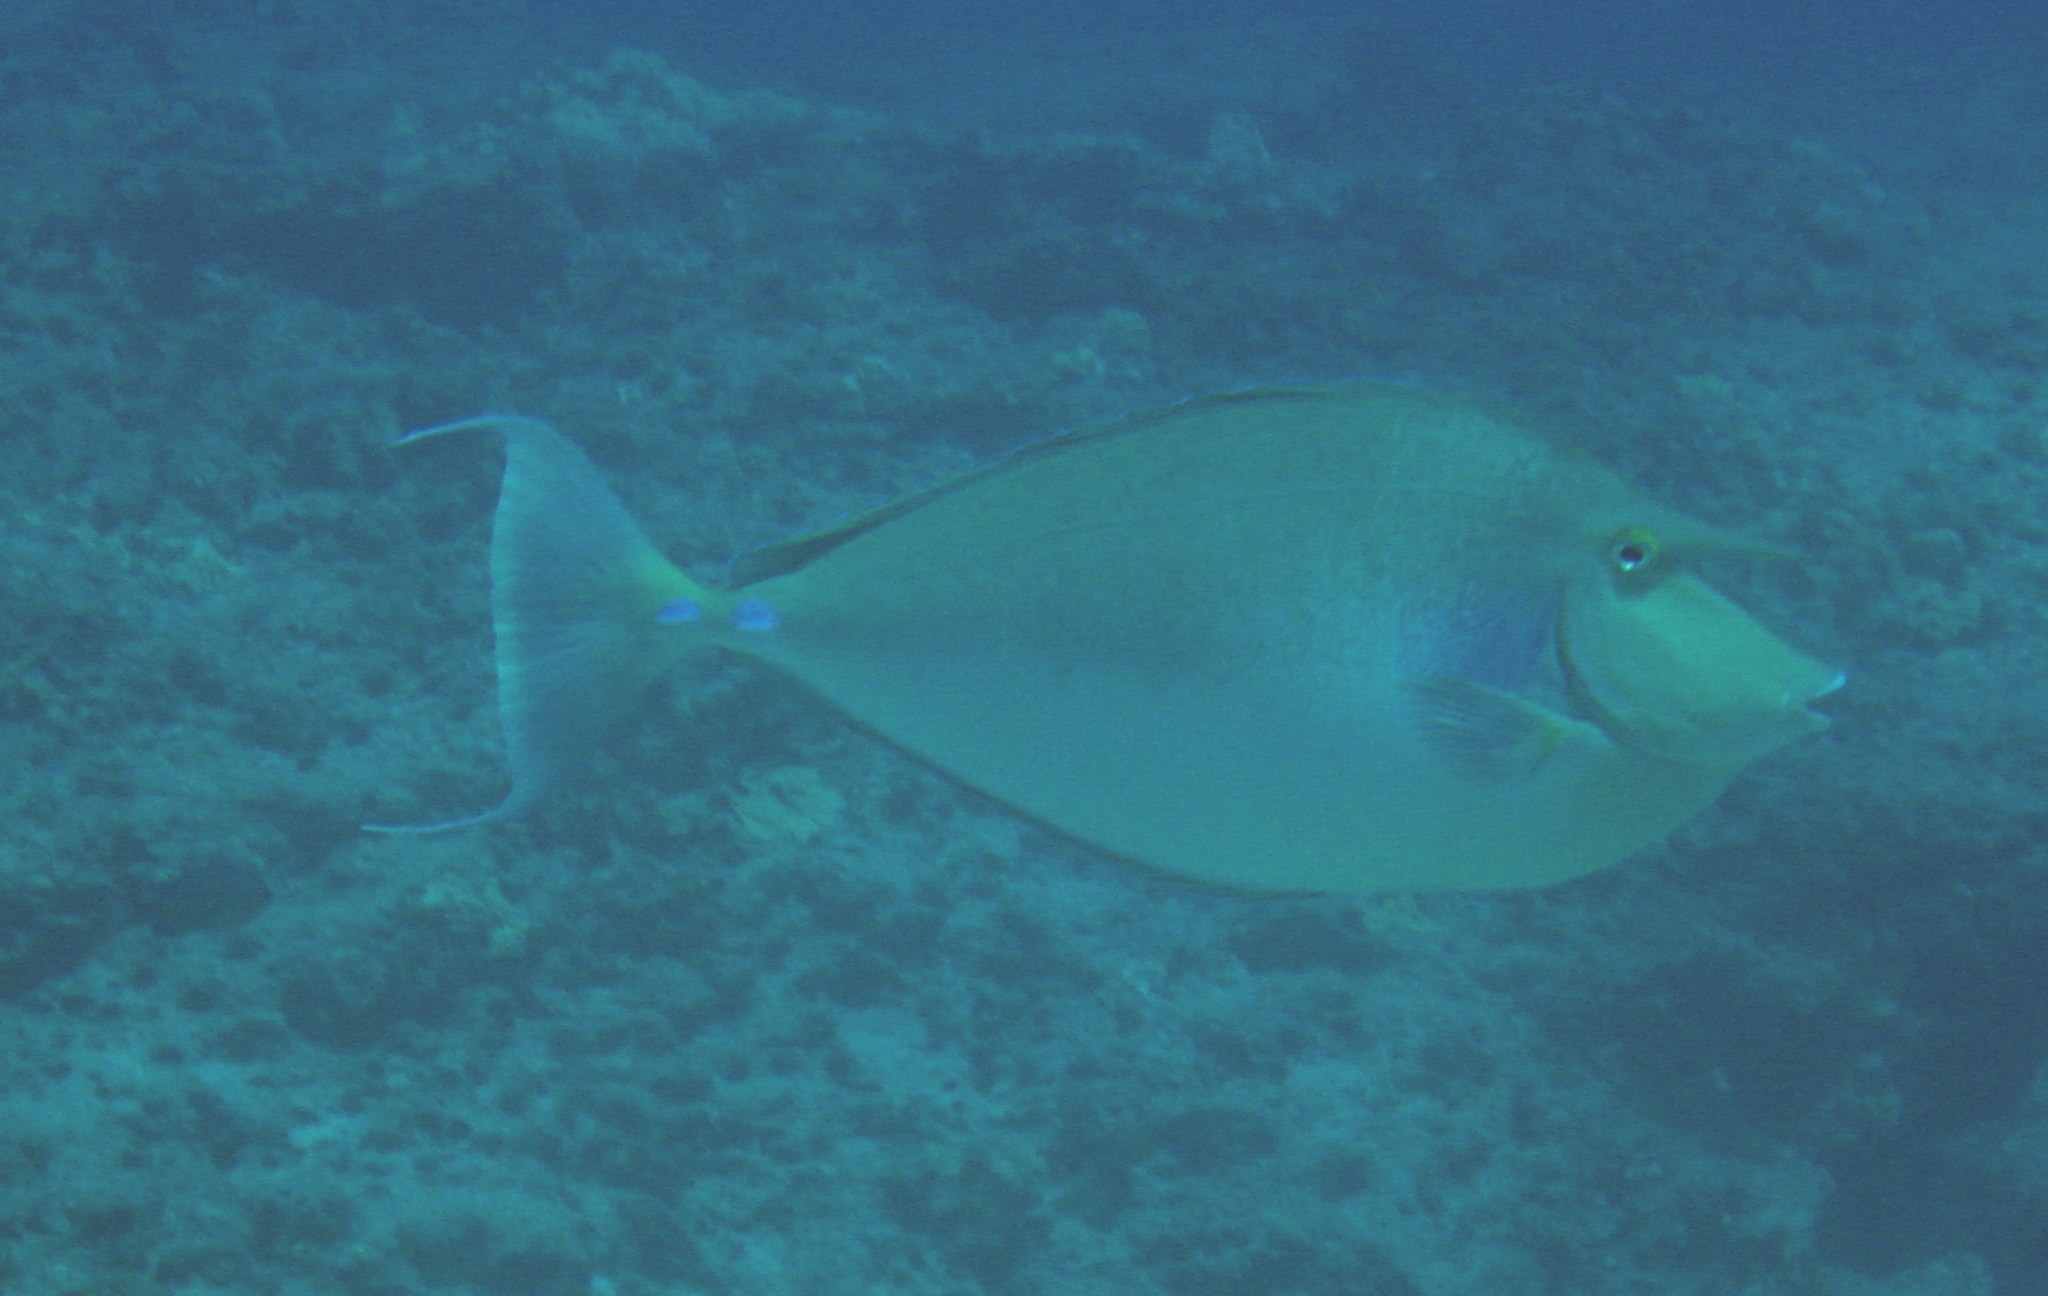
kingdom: Animalia
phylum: Chordata
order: Perciformes
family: Acanthuridae
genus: Naso
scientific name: Naso unicornis
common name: Bluespine unicornfish
